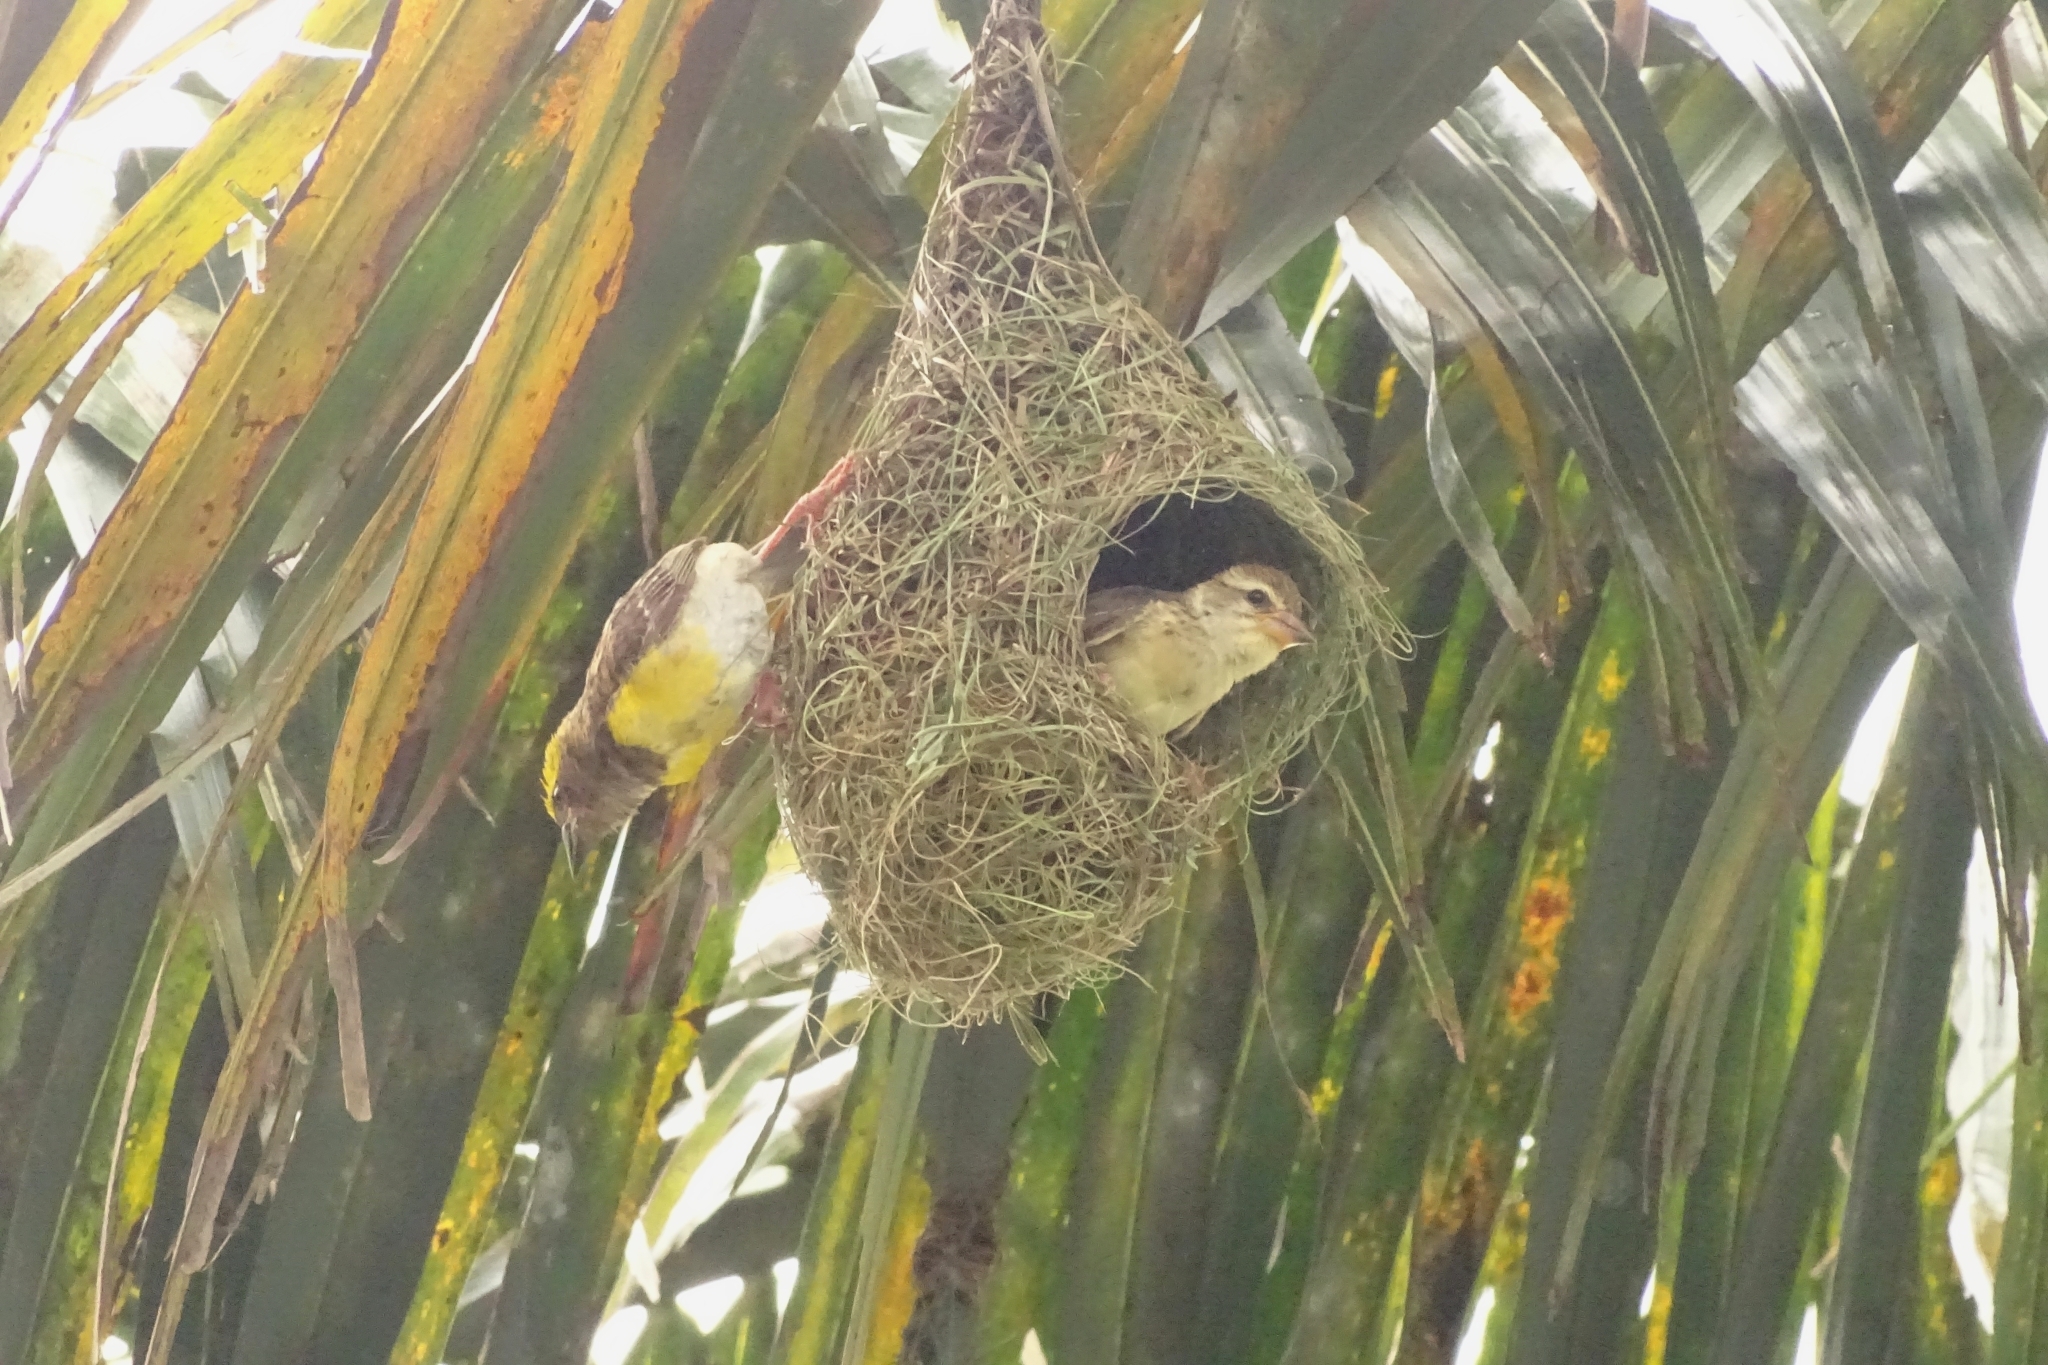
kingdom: Animalia
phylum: Chordata
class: Aves
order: Passeriformes
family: Ploceidae
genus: Ploceus
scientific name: Ploceus philippinus
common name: Baya weaver
